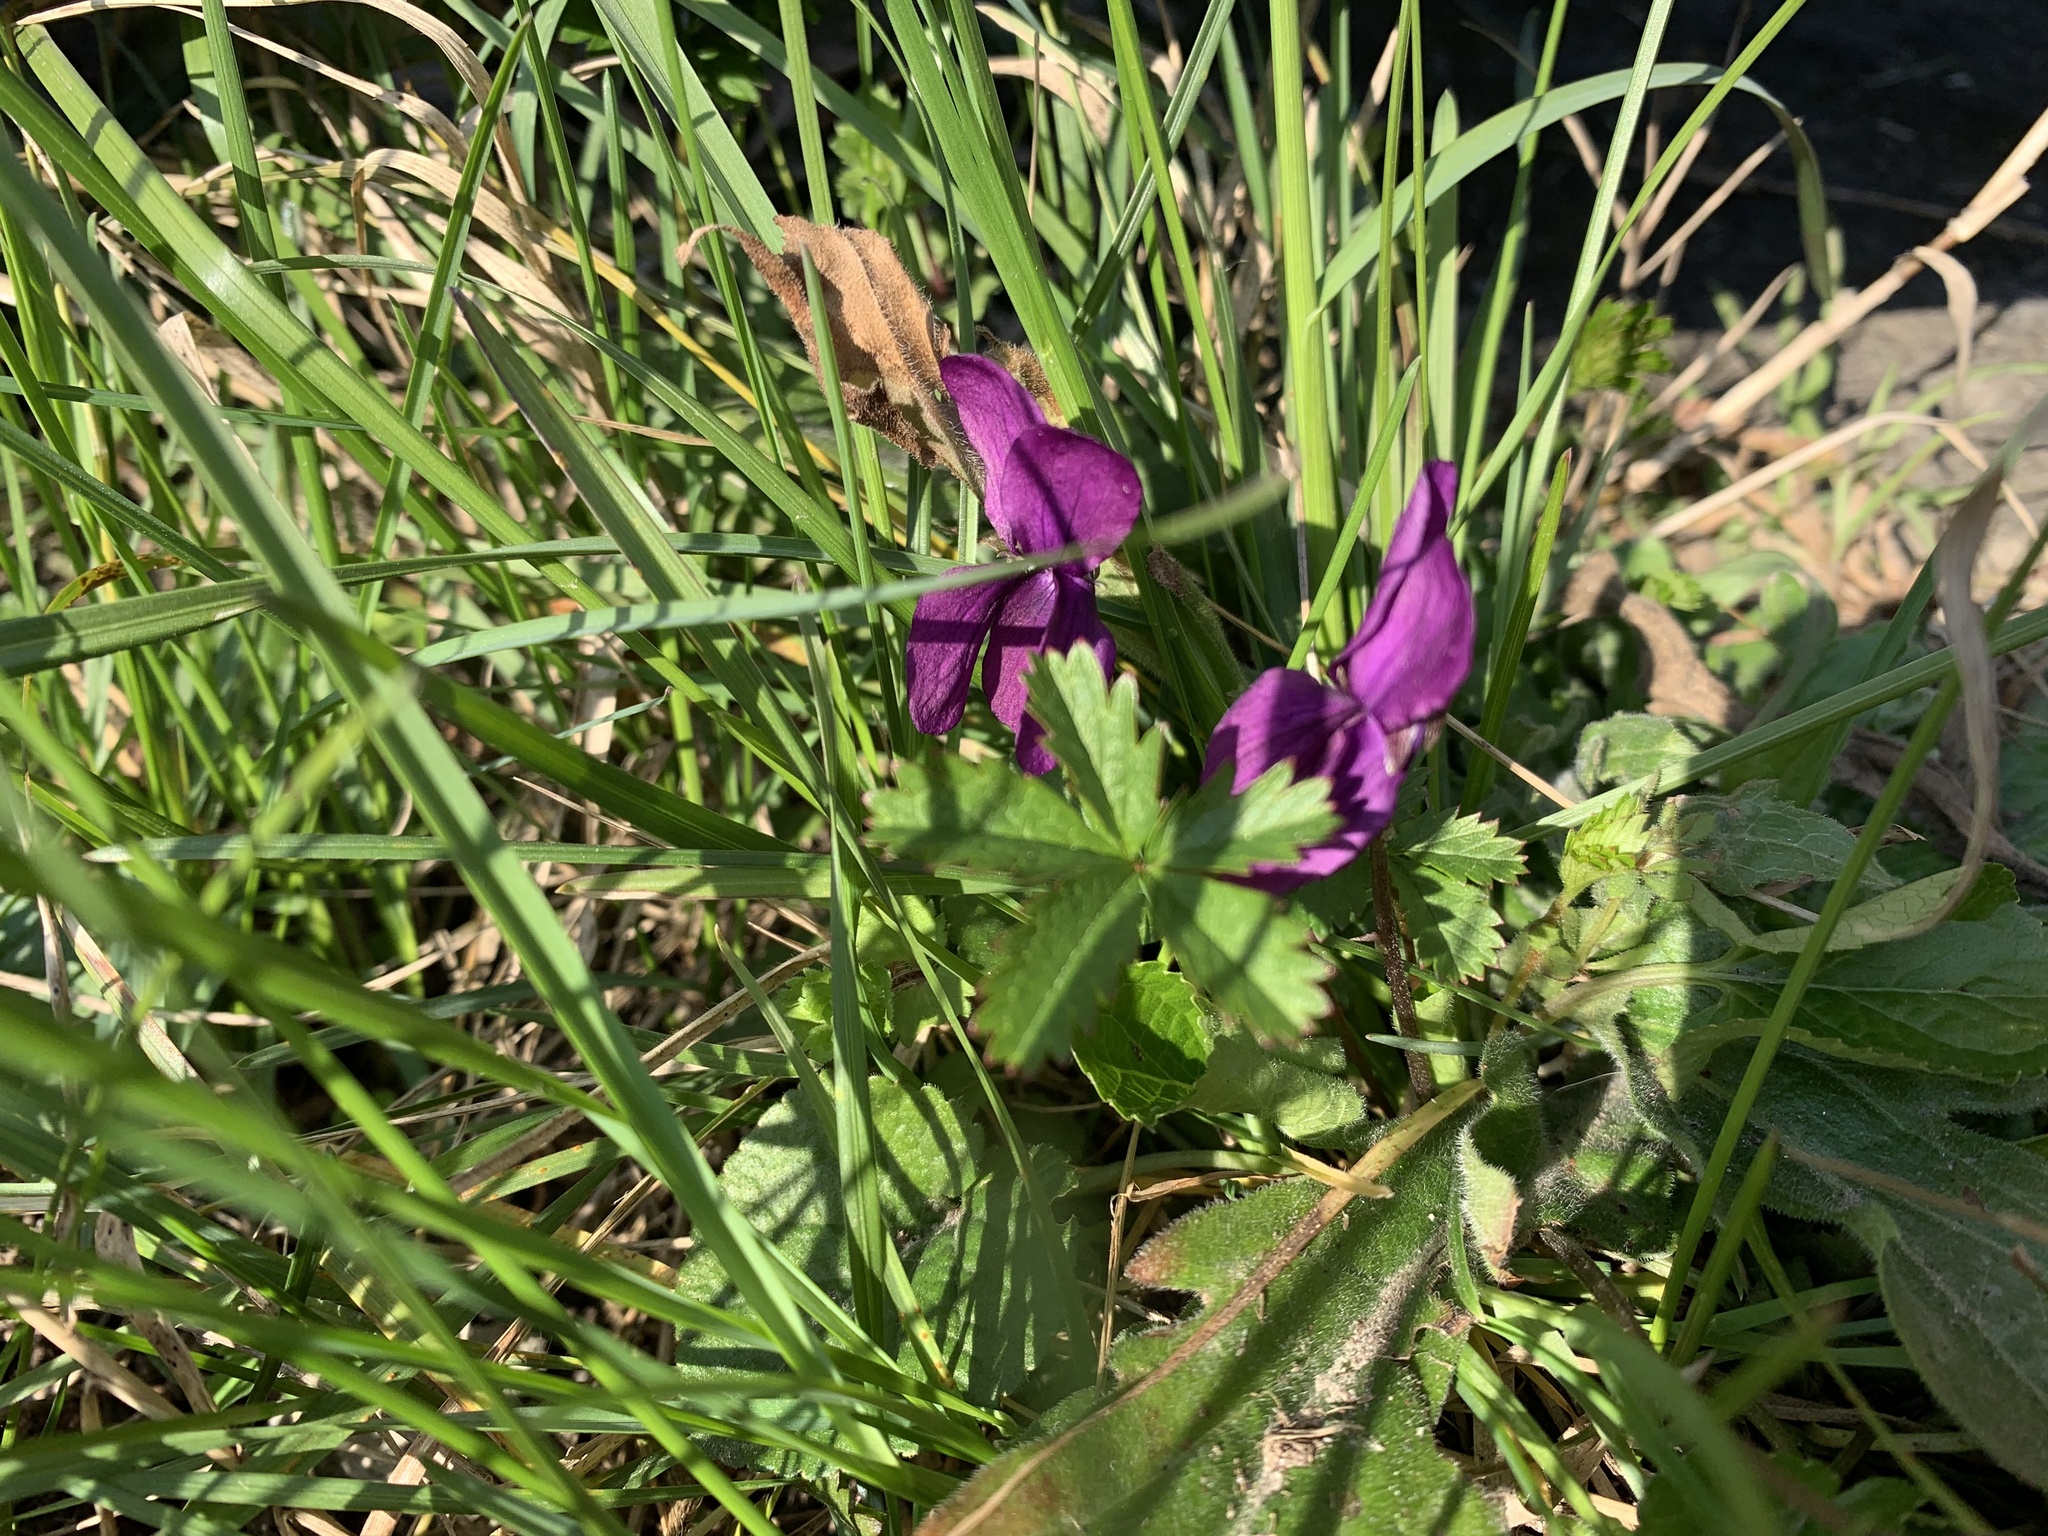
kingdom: Plantae
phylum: Tracheophyta
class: Magnoliopsida
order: Malpighiales
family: Violaceae
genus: Viola
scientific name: Viola odorata
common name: Sweet violet
